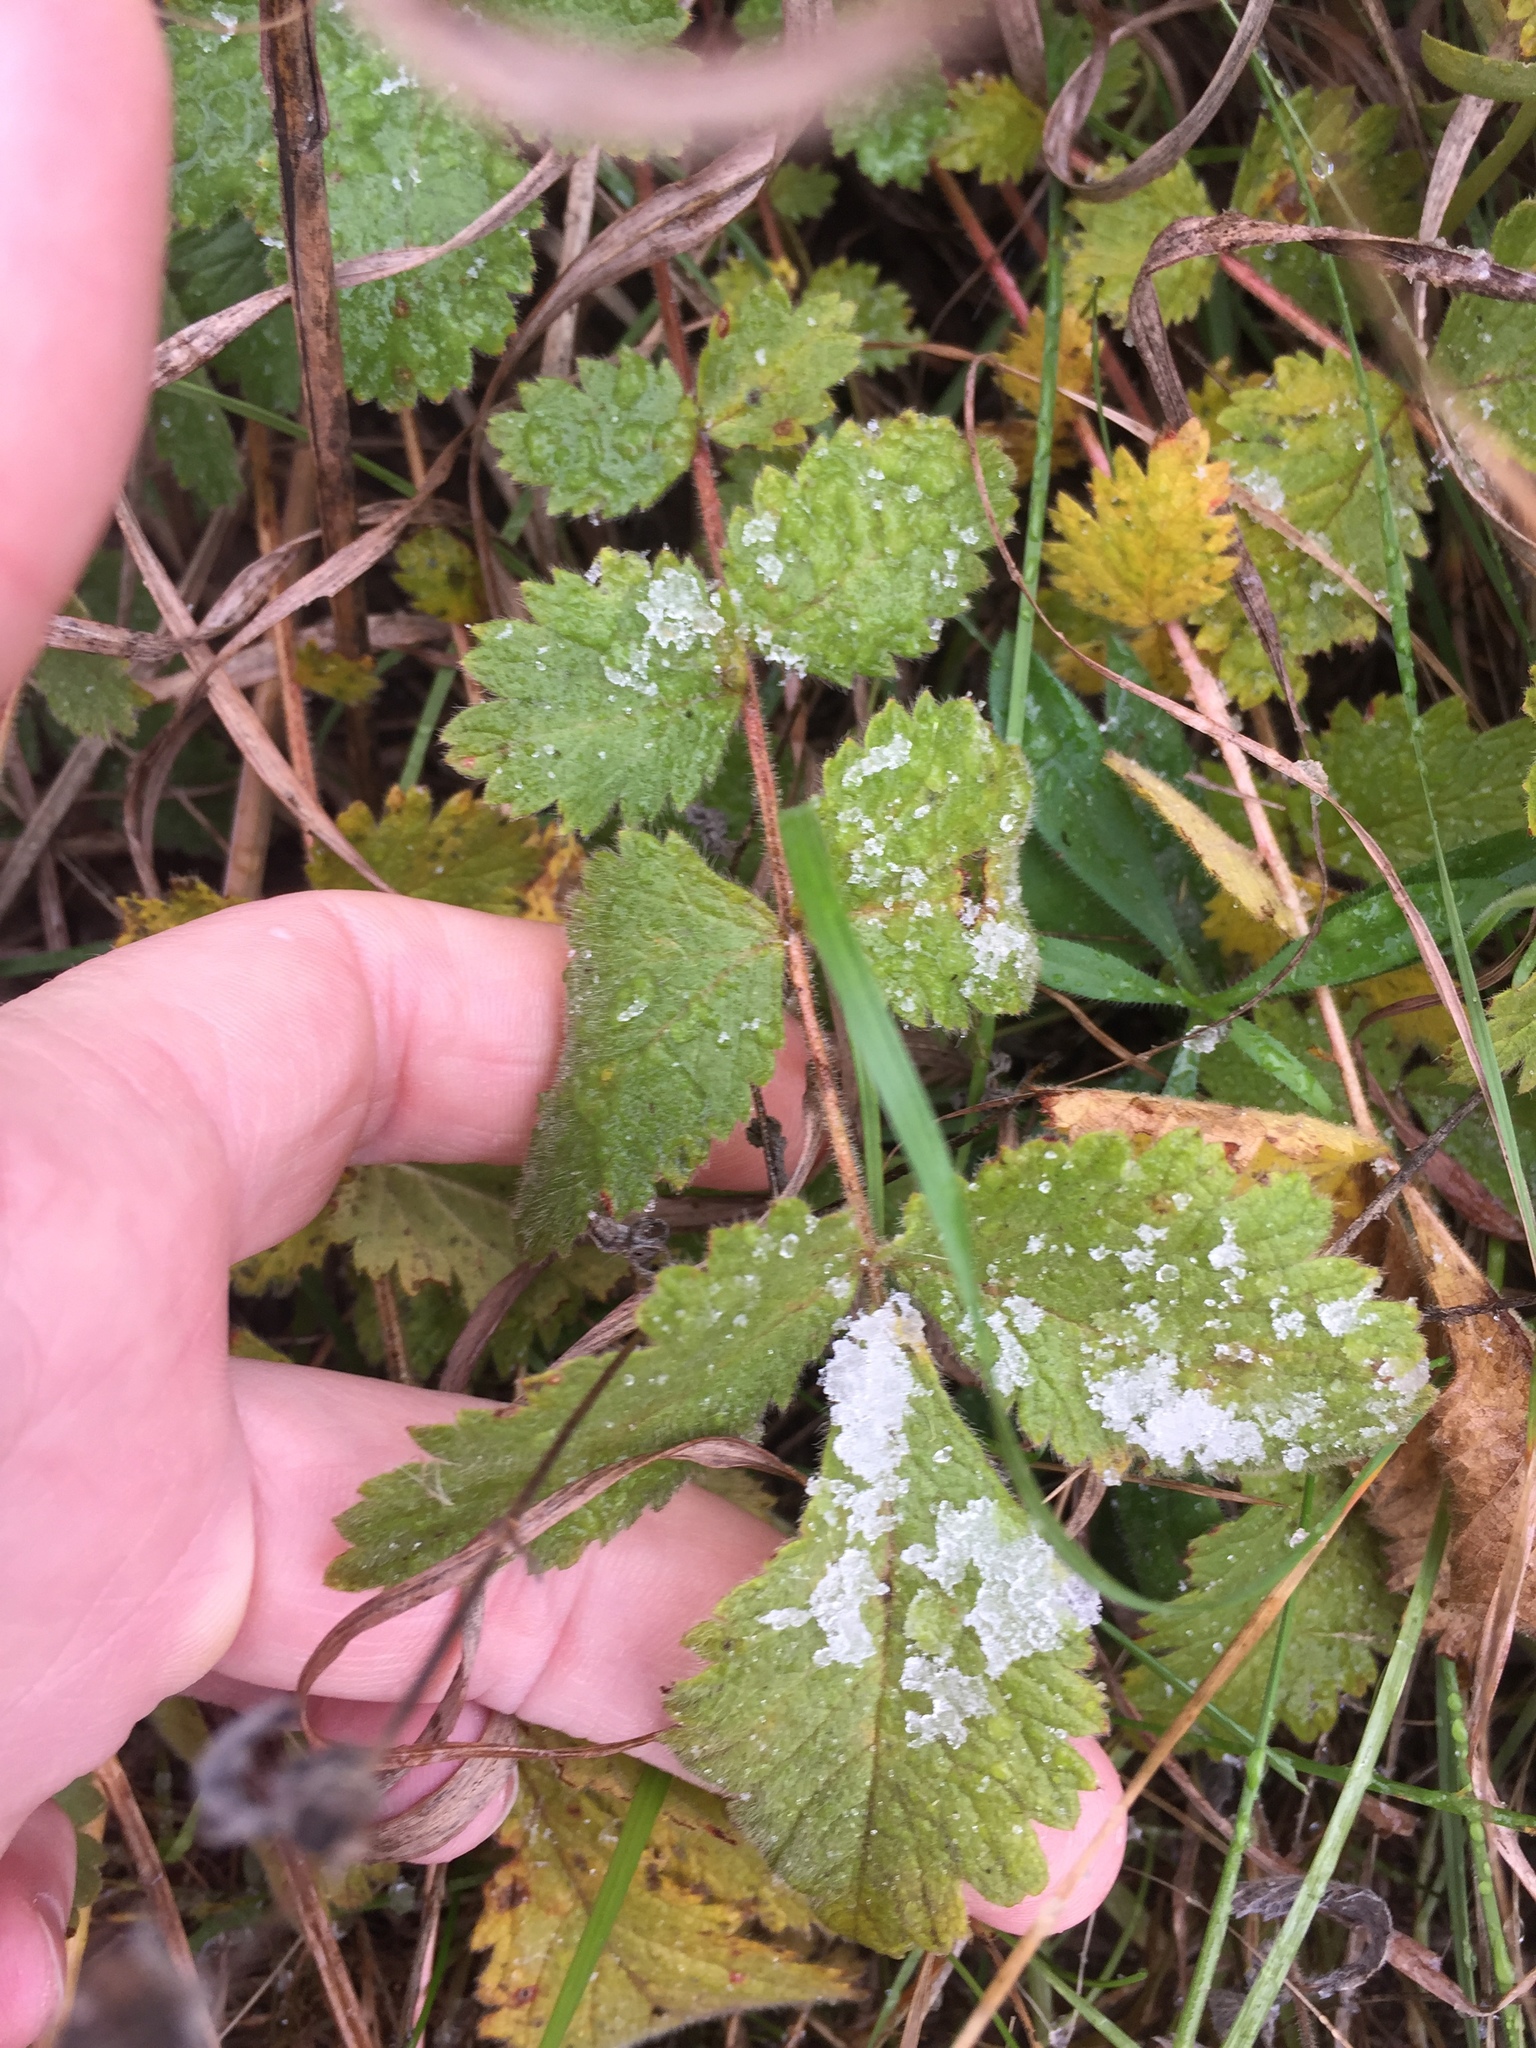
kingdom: Plantae
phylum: Tracheophyta
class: Magnoliopsida
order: Rosales
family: Rosaceae
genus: Drymocallis
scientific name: Drymocallis arguta
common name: Tall cinquefoil
